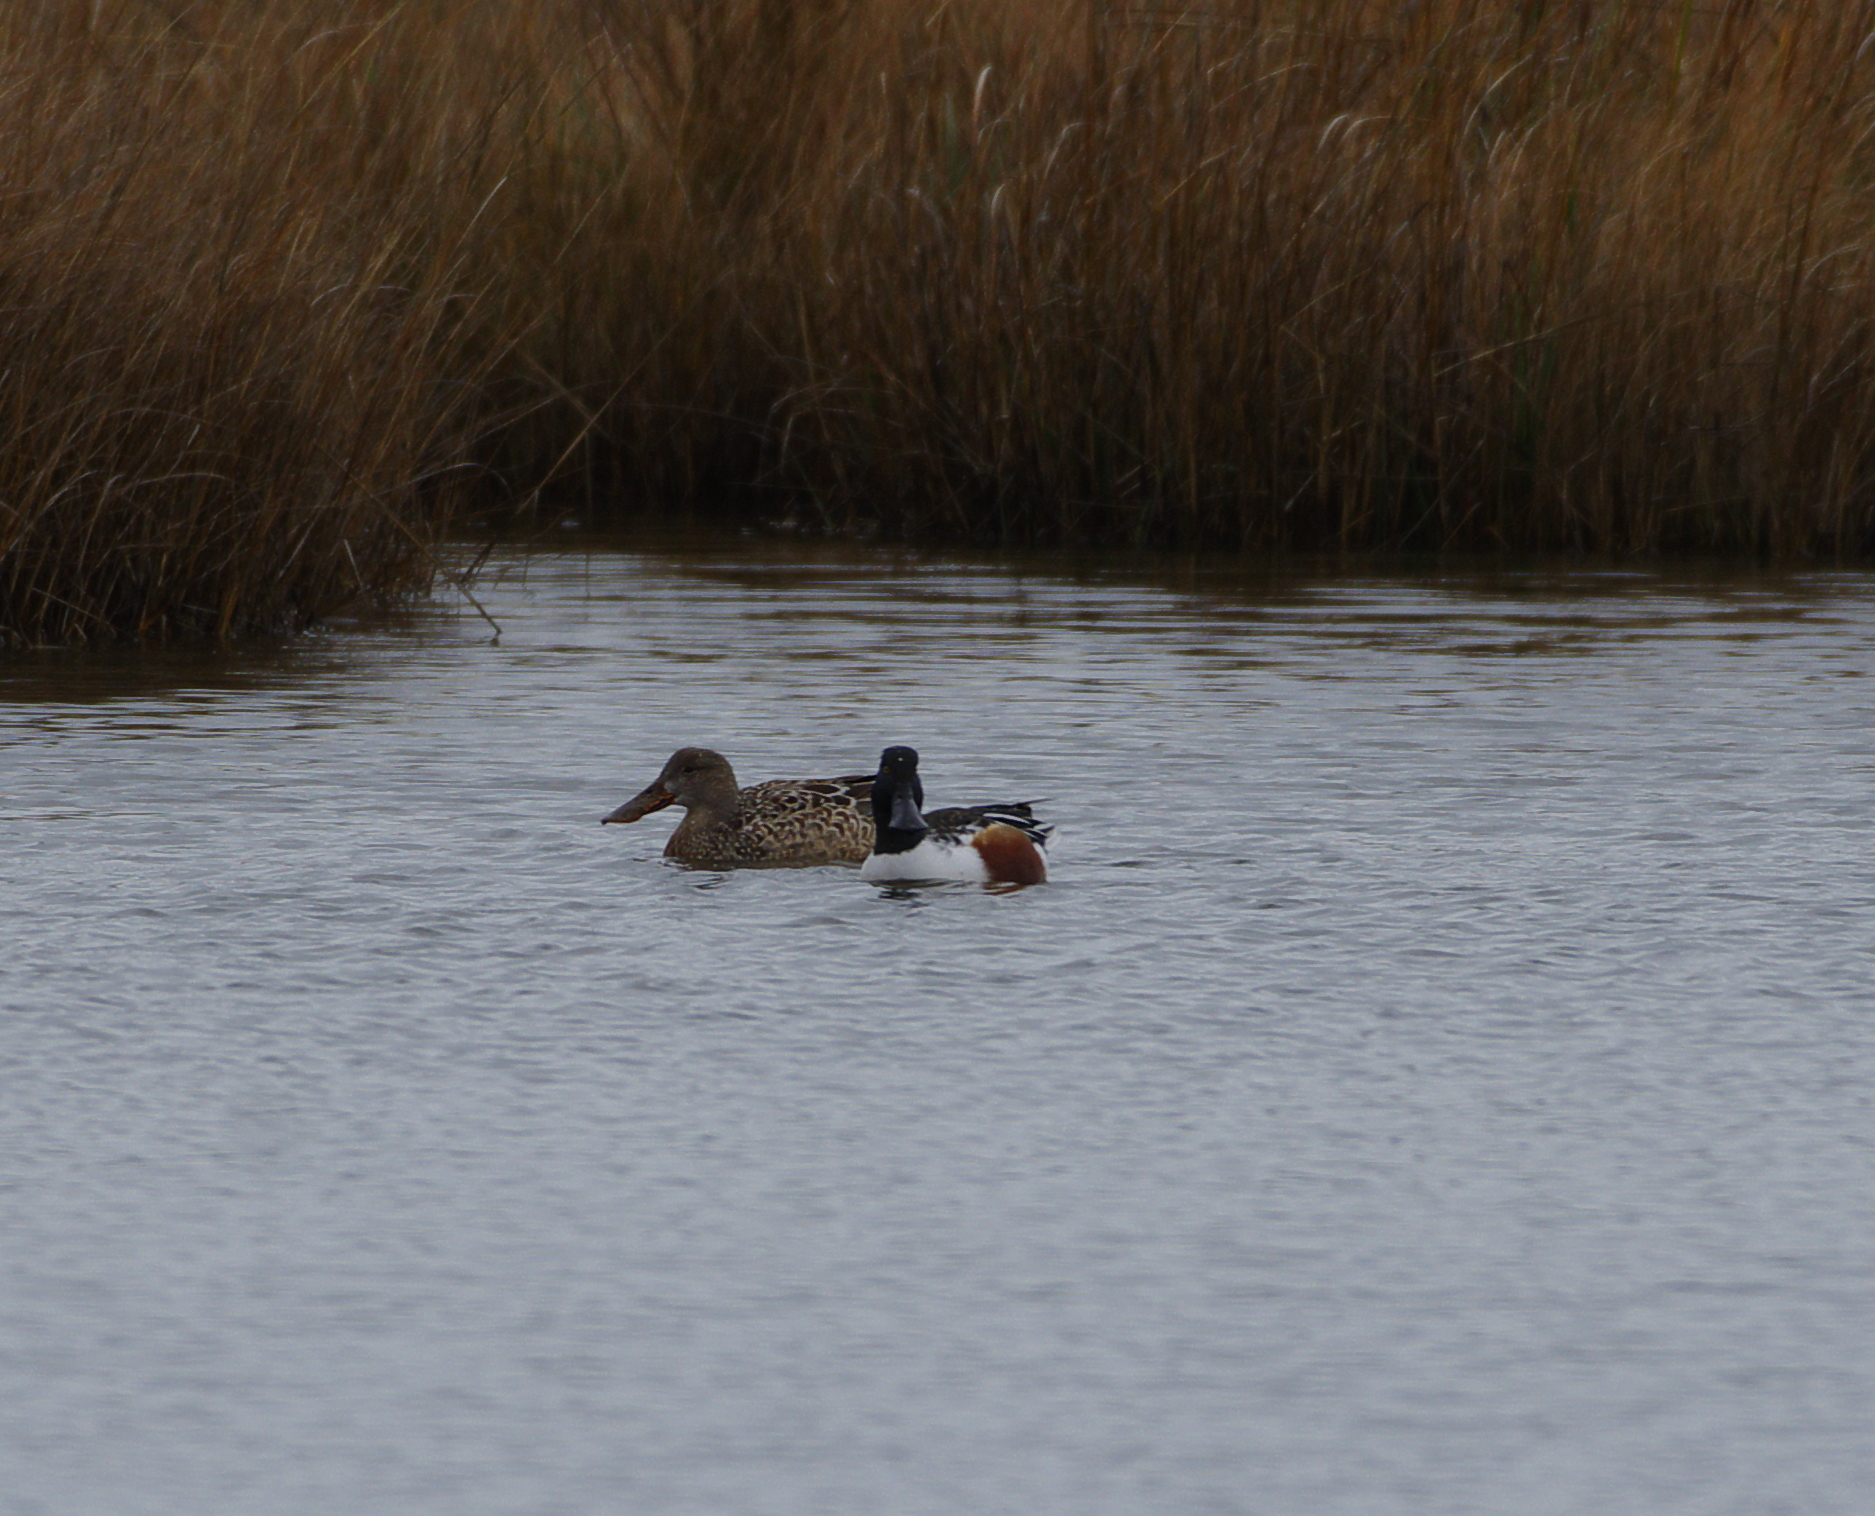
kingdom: Animalia
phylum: Chordata
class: Aves
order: Anseriformes
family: Anatidae
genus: Spatula
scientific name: Spatula clypeata
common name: Northern shoveler
